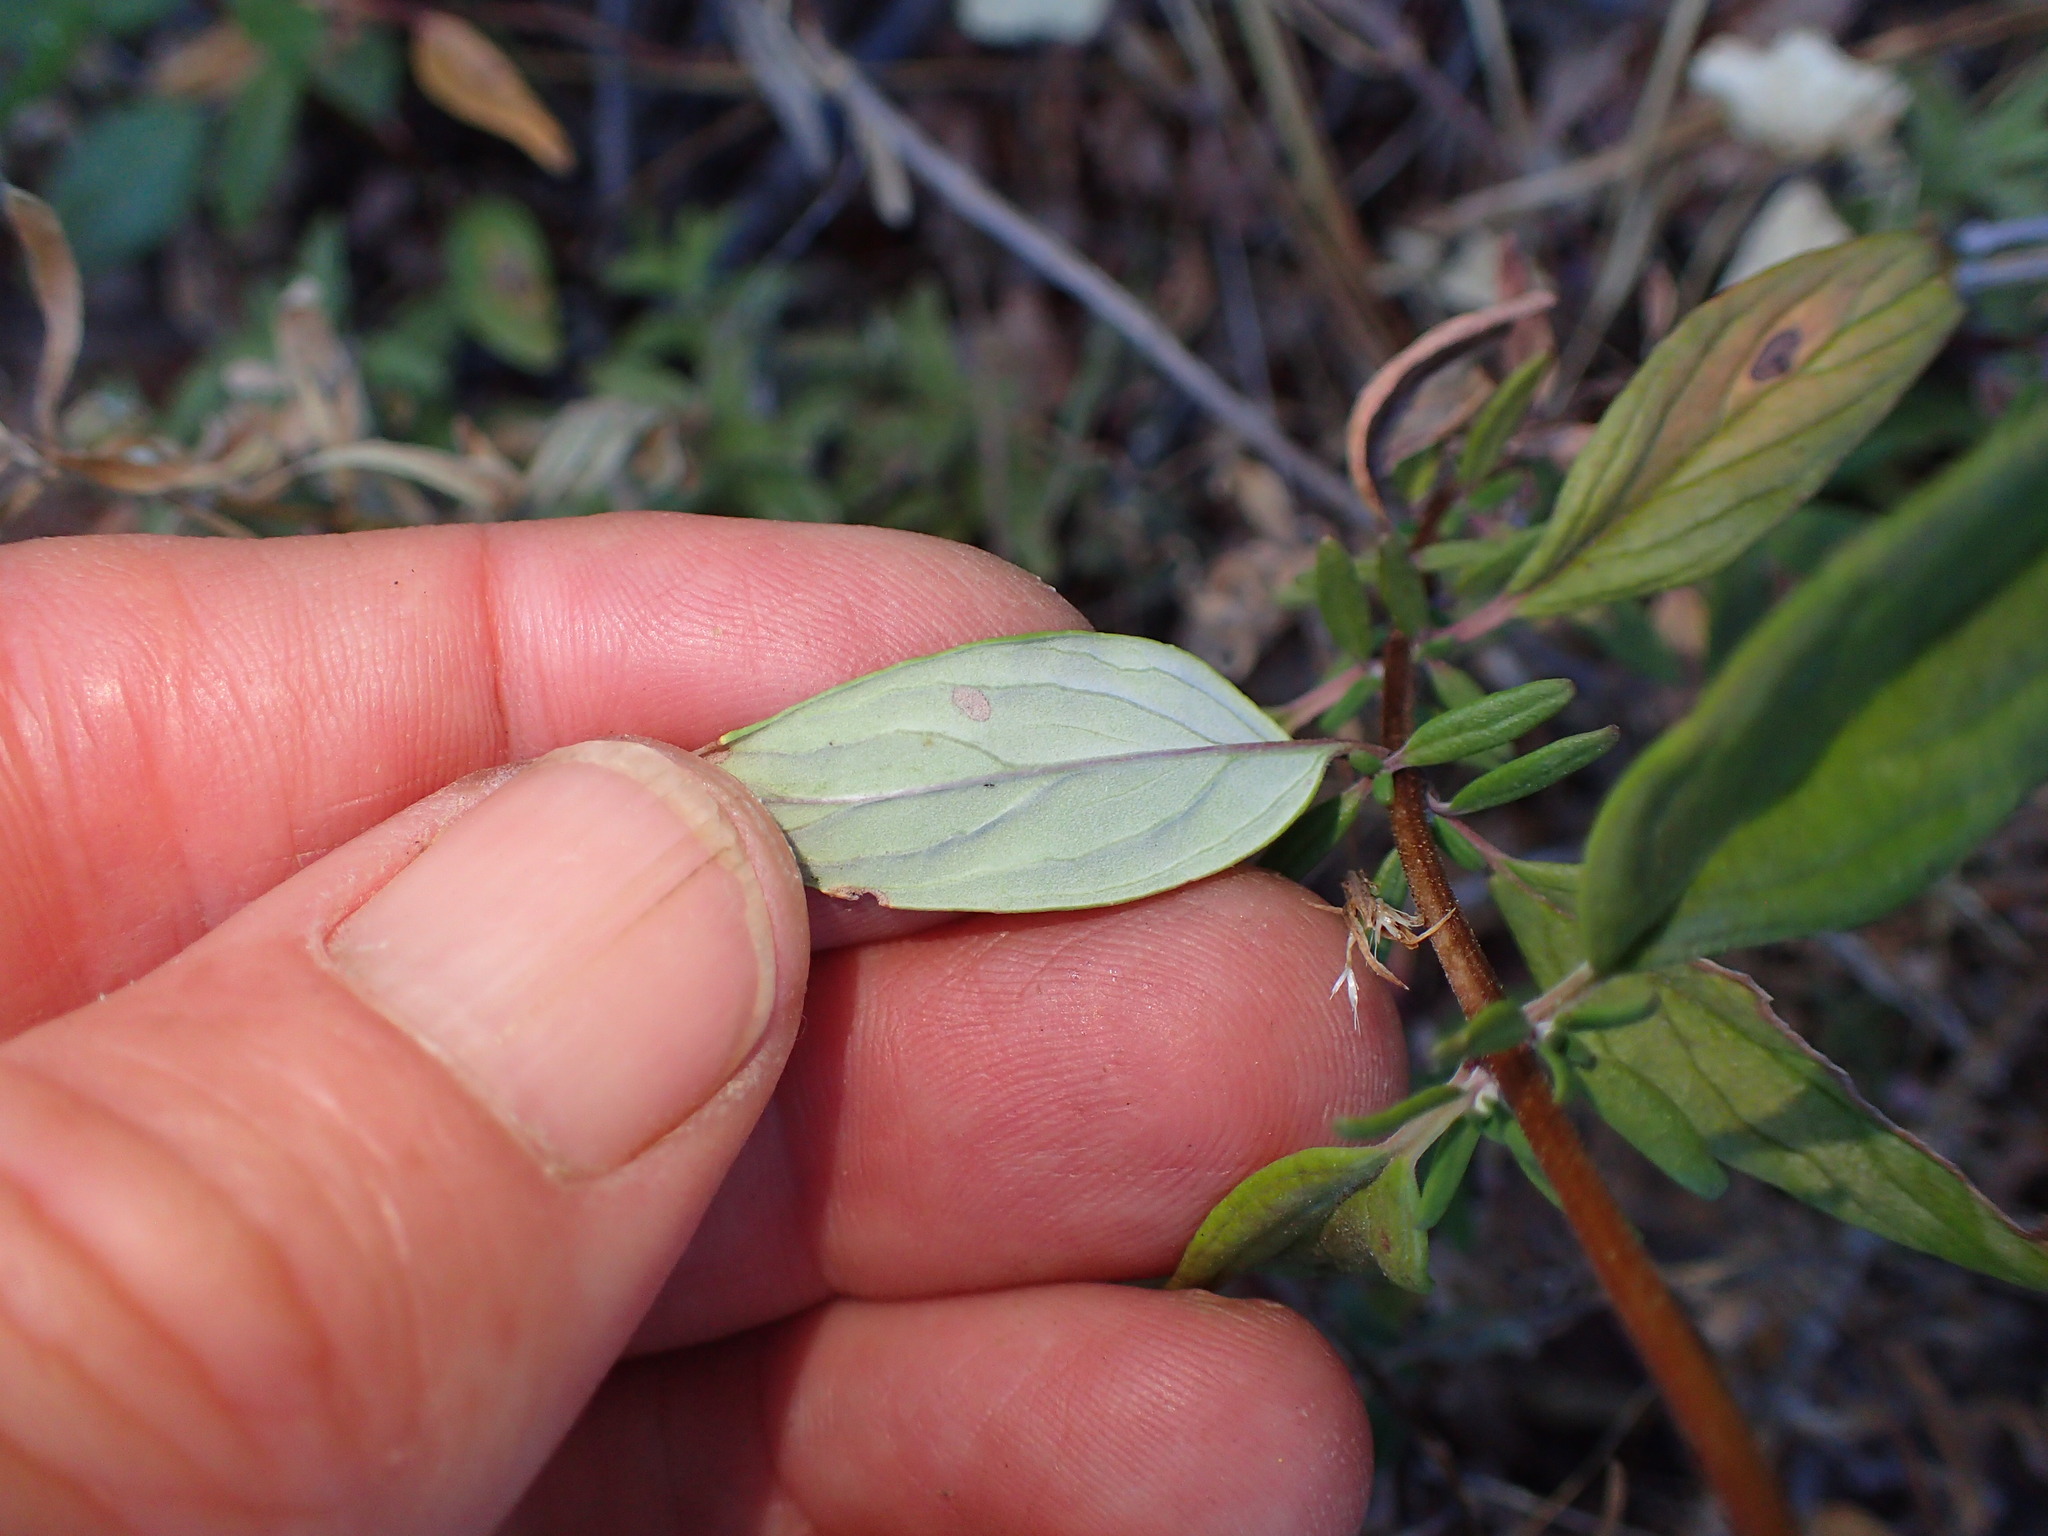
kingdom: Plantae
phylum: Tracheophyta
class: Magnoliopsida
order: Lamiales
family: Lamiaceae
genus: Monardella
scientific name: Monardella hypoleuca
